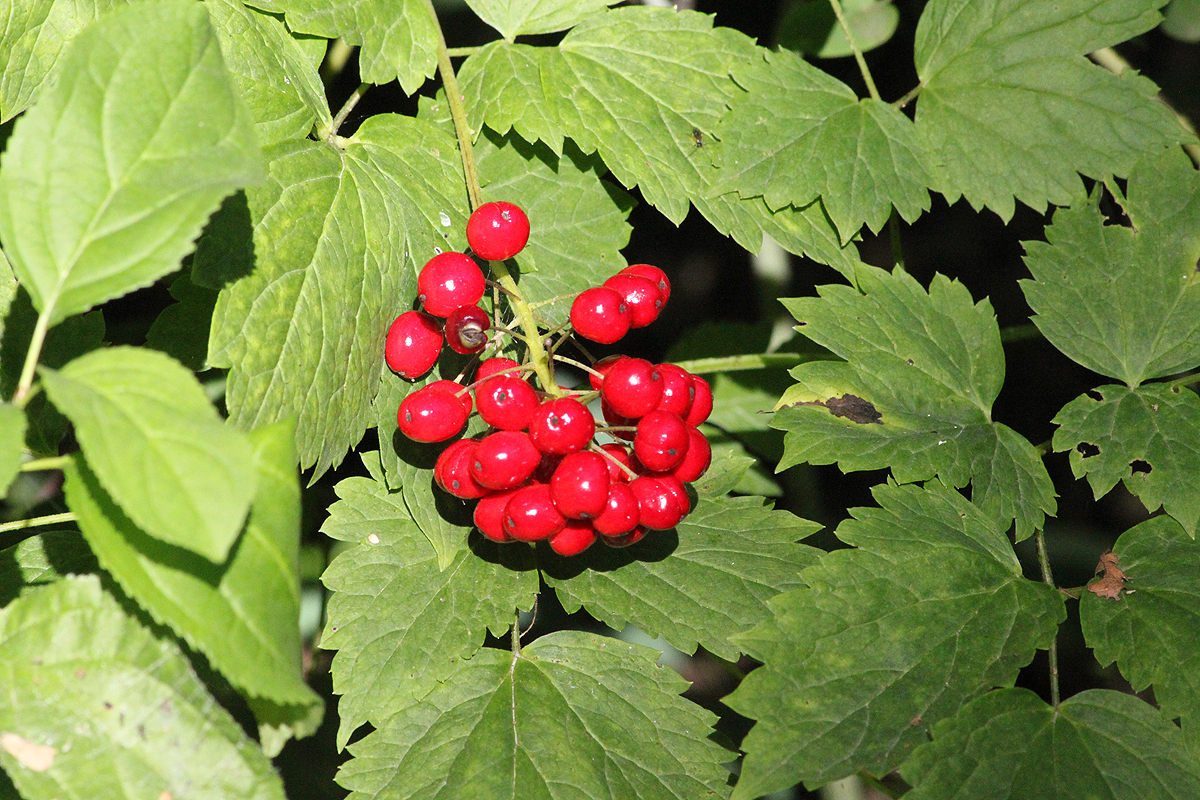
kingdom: Plantae
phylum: Tracheophyta
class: Magnoliopsida
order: Ranunculales
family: Ranunculaceae
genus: Actaea
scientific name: Actaea rubra
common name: Red baneberry
